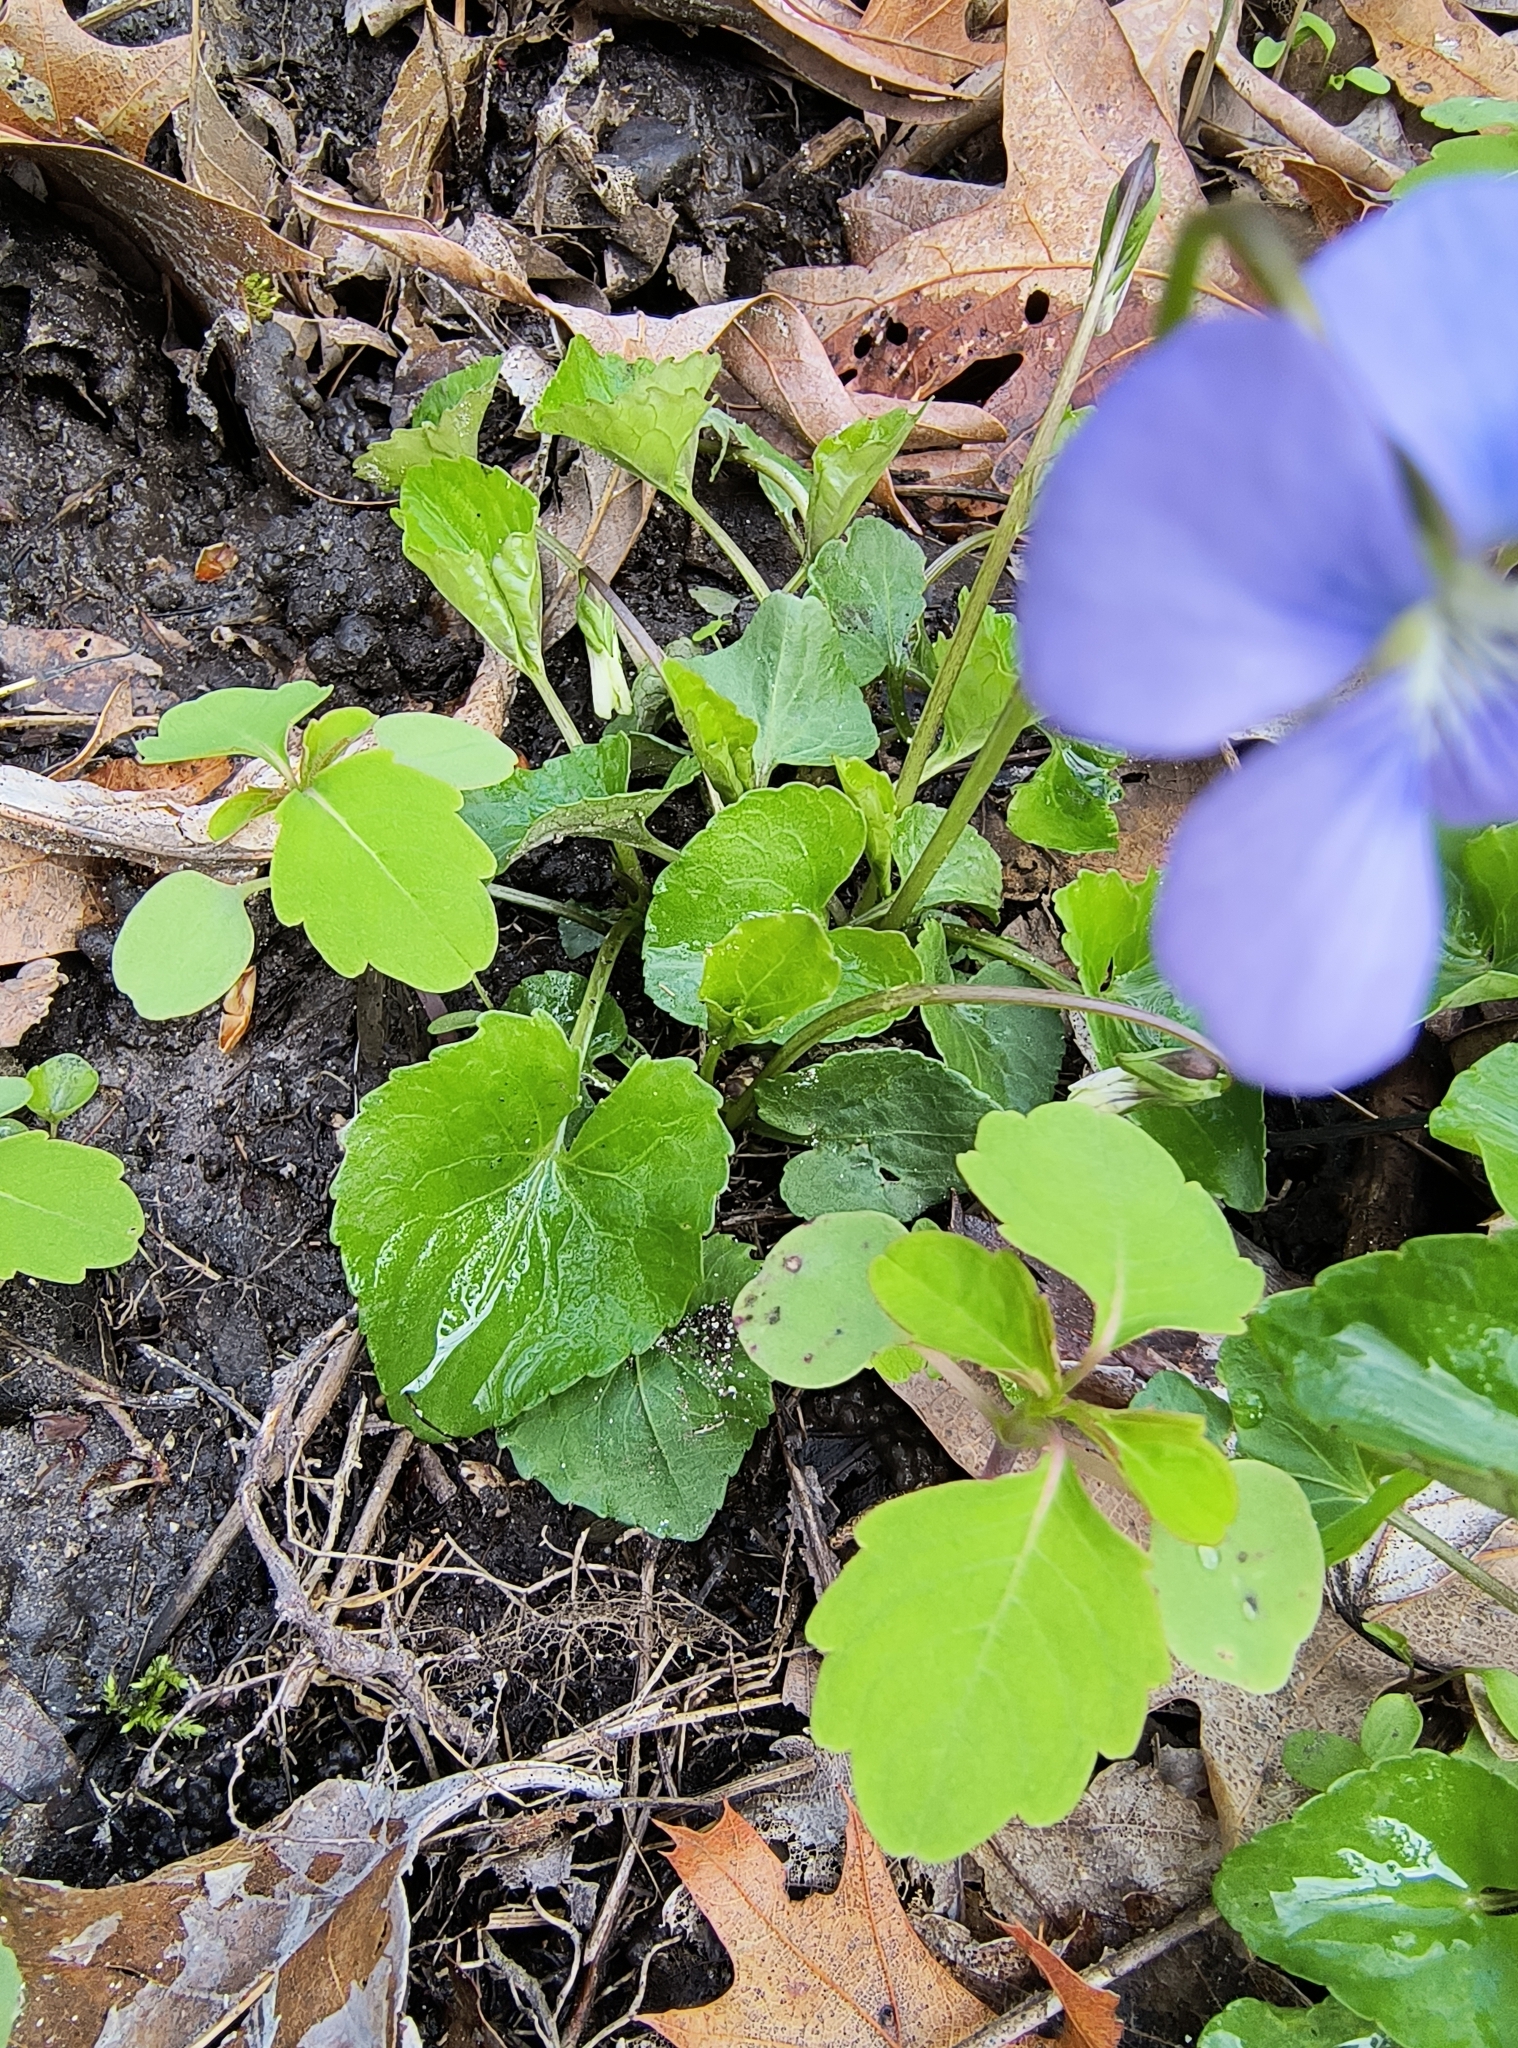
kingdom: Plantae
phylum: Tracheophyta
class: Magnoliopsida
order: Malpighiales
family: Violaceae
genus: Viola
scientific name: Viola cucullata
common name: Marsh blue violet
